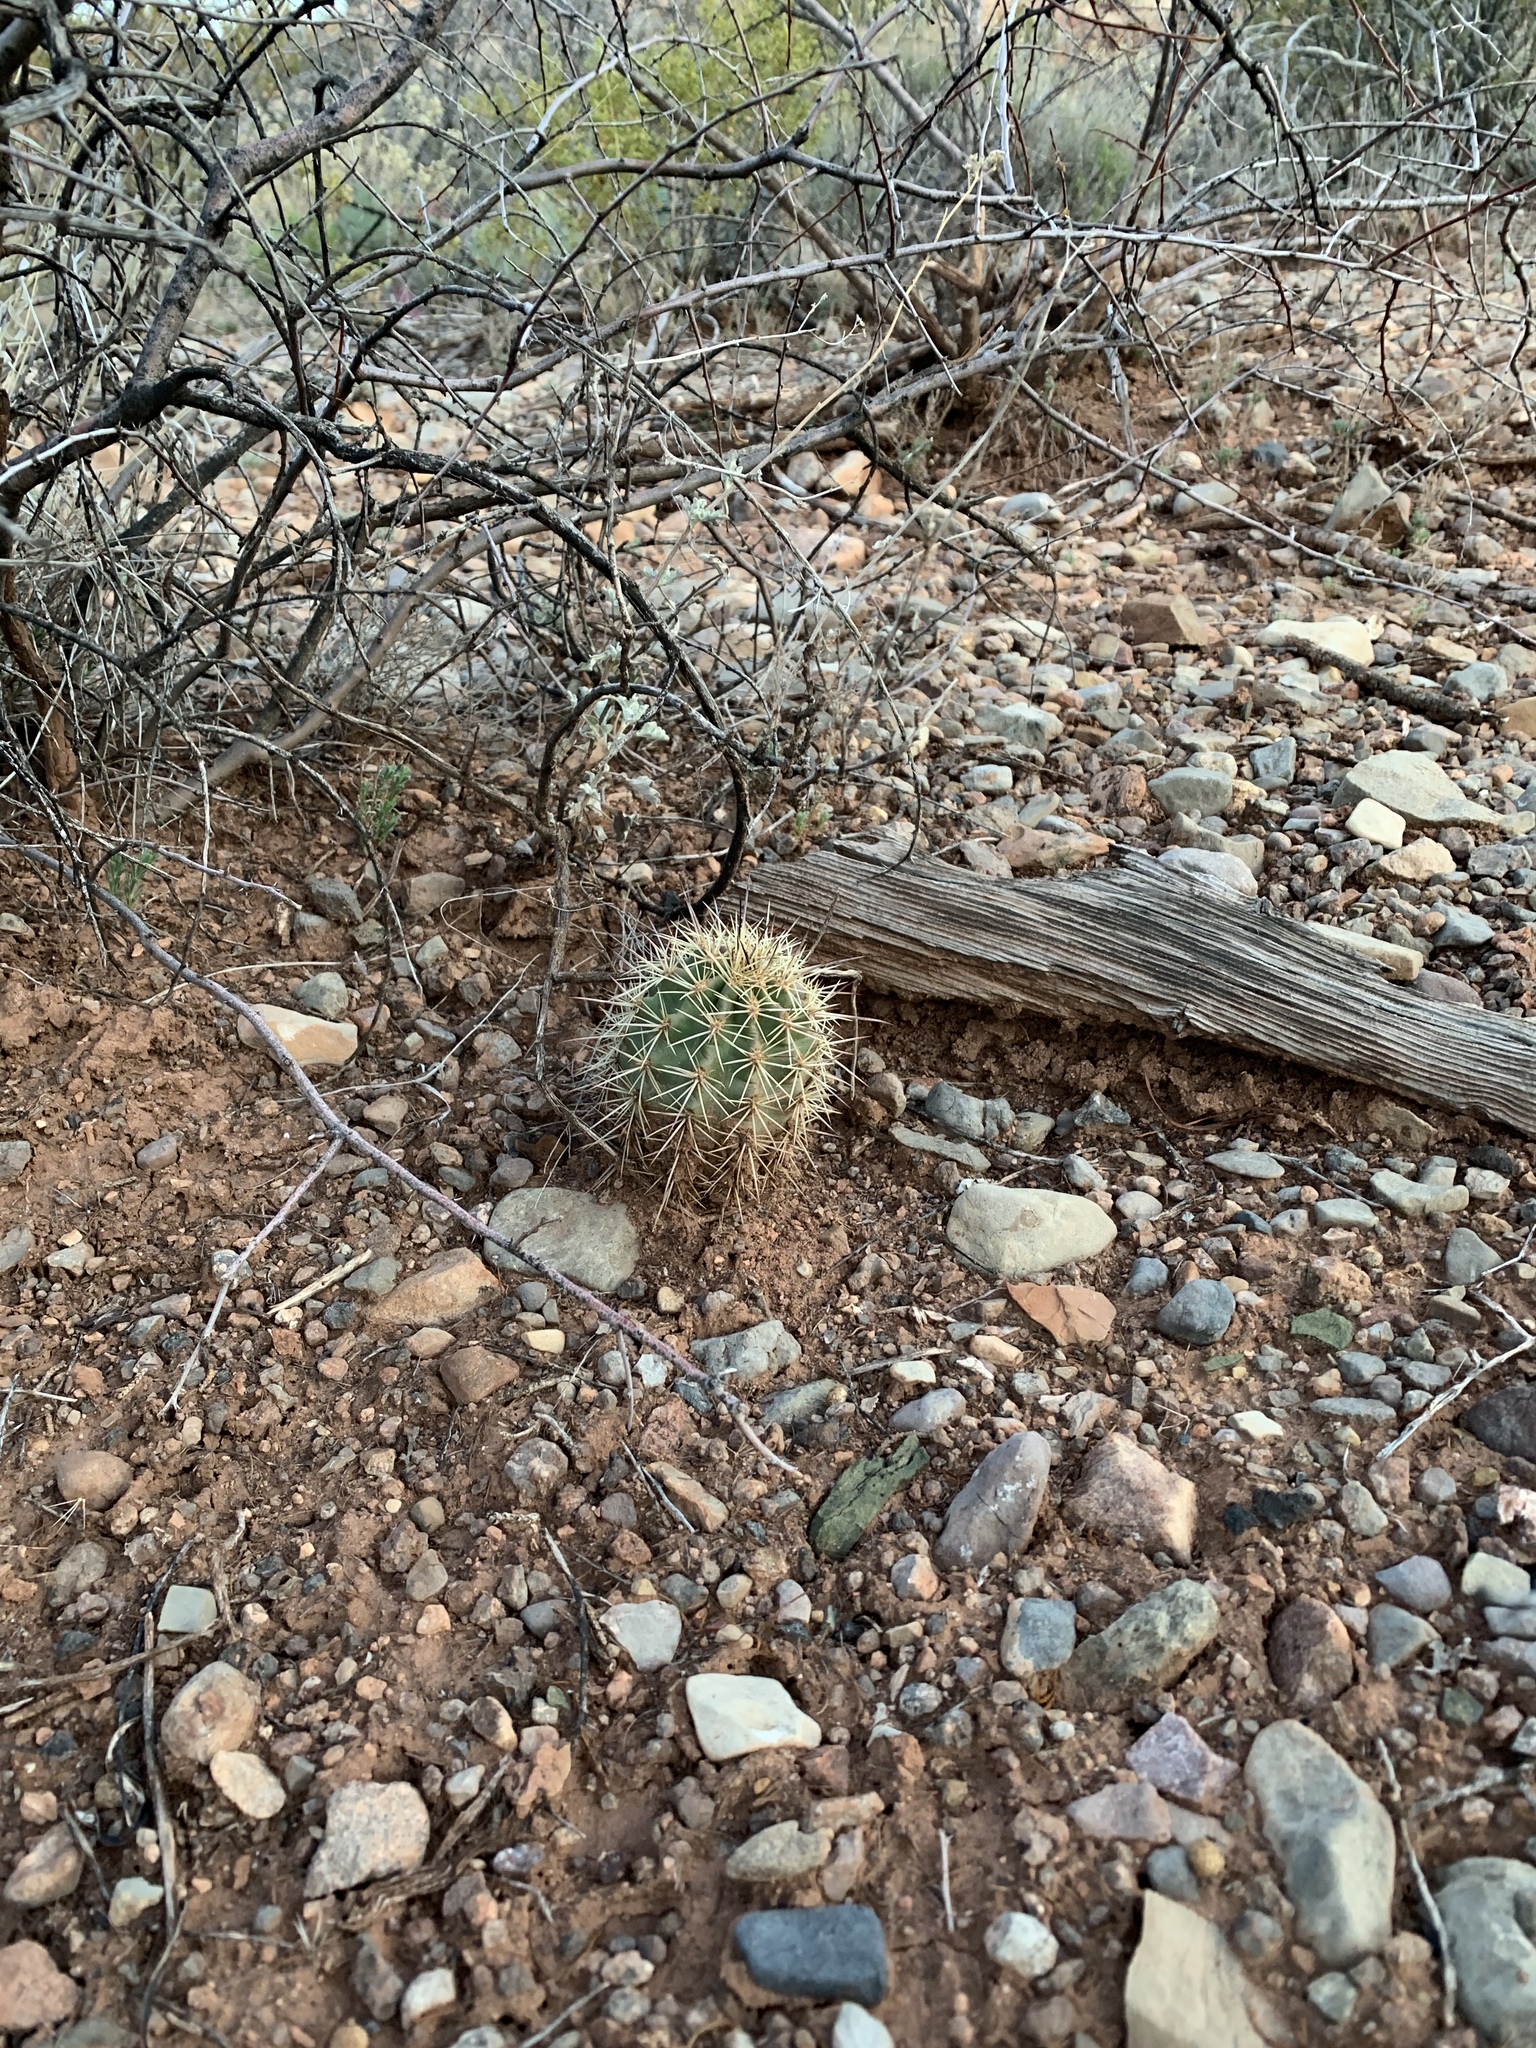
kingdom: Plantae
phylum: Tracheophyta
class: Magnoliopsida
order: Caryophyllales
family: Cactaceae
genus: Echinocereus
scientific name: Echinocereus coccineus
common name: Scarlet hedgehog cactus
